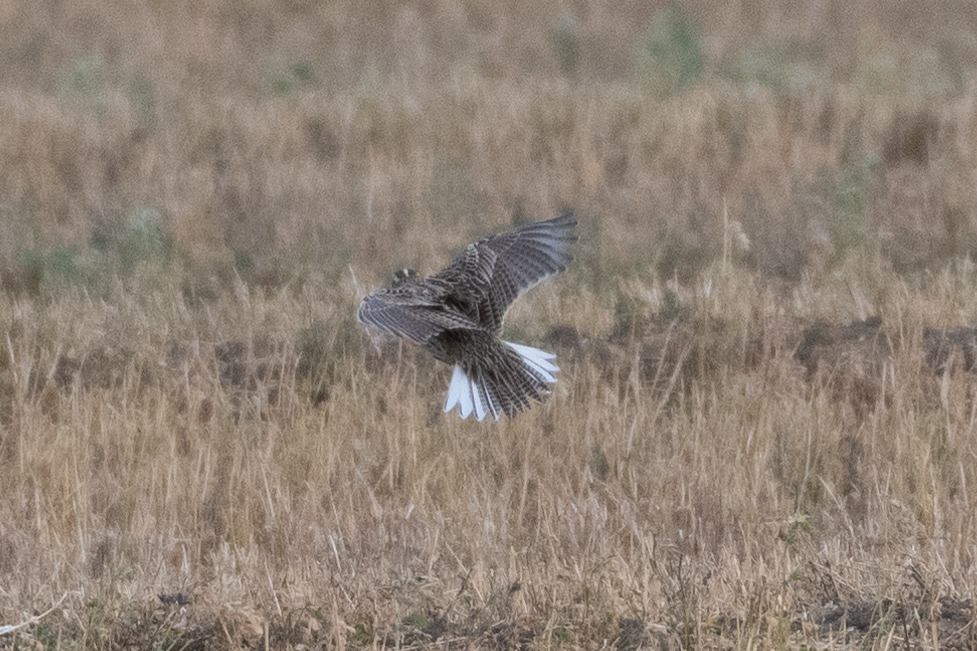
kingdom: Animalia
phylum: Chordata
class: Aves
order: Passeriformes
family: Icteridae
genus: Sturnella
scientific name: Sturnella neglecta
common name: Western meadowlark
